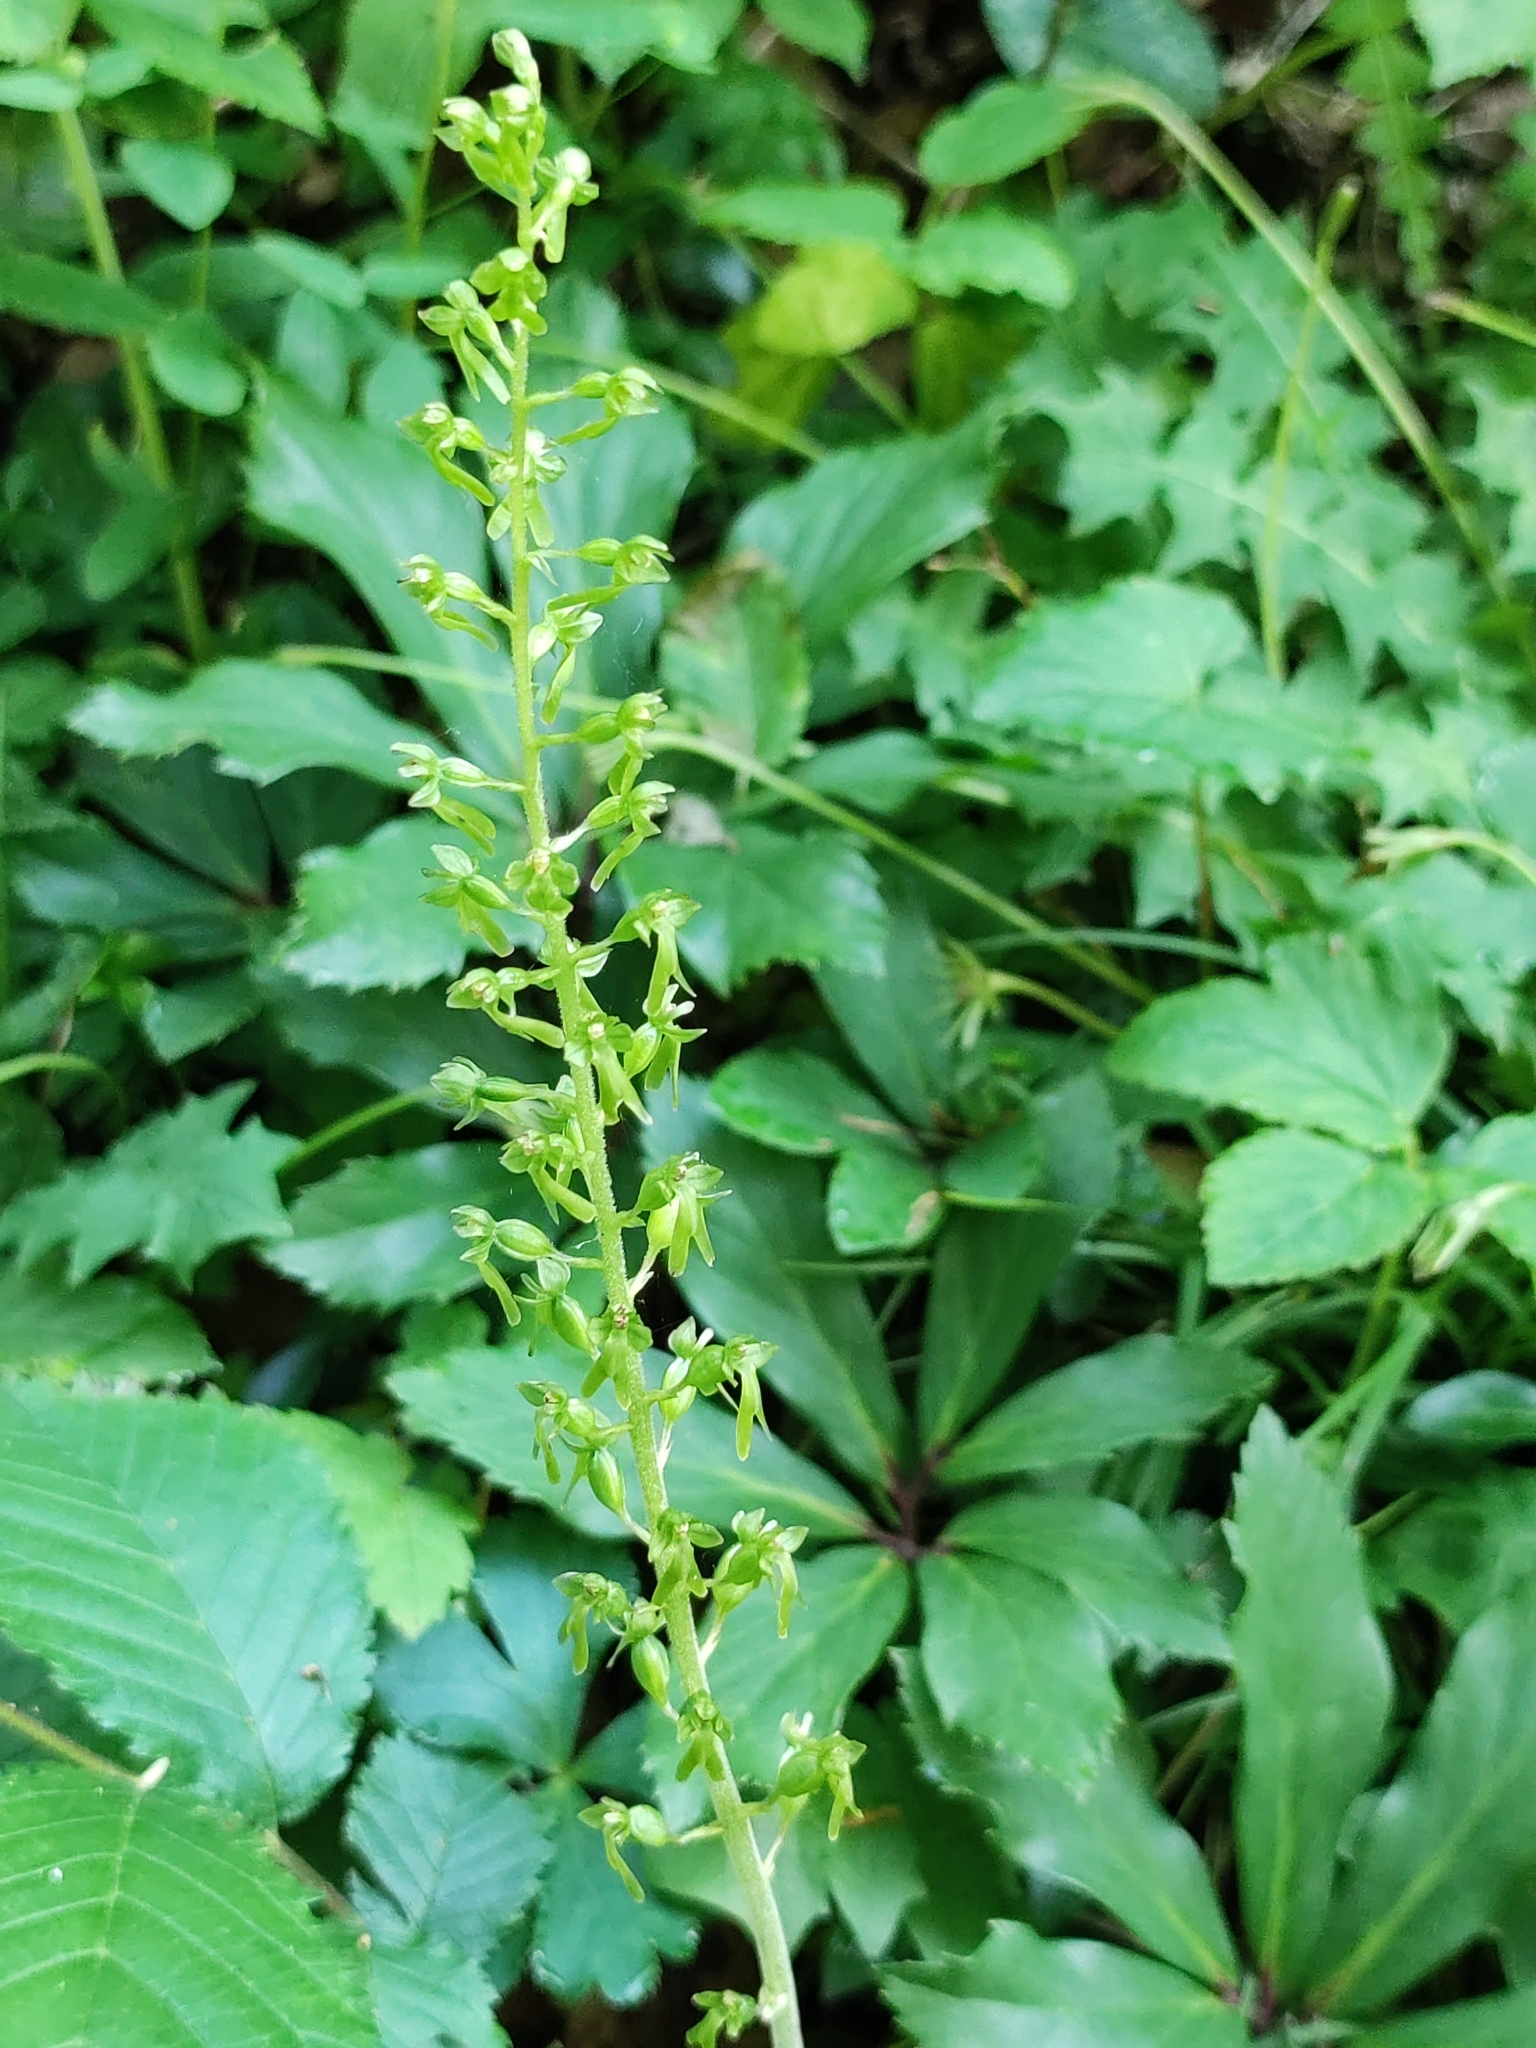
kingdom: Plantae
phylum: Tracheophyta
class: Liliopsida
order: Asparagales
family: Orchidaceae
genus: Neottia
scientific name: Neottia ovata
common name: Common twayblade
